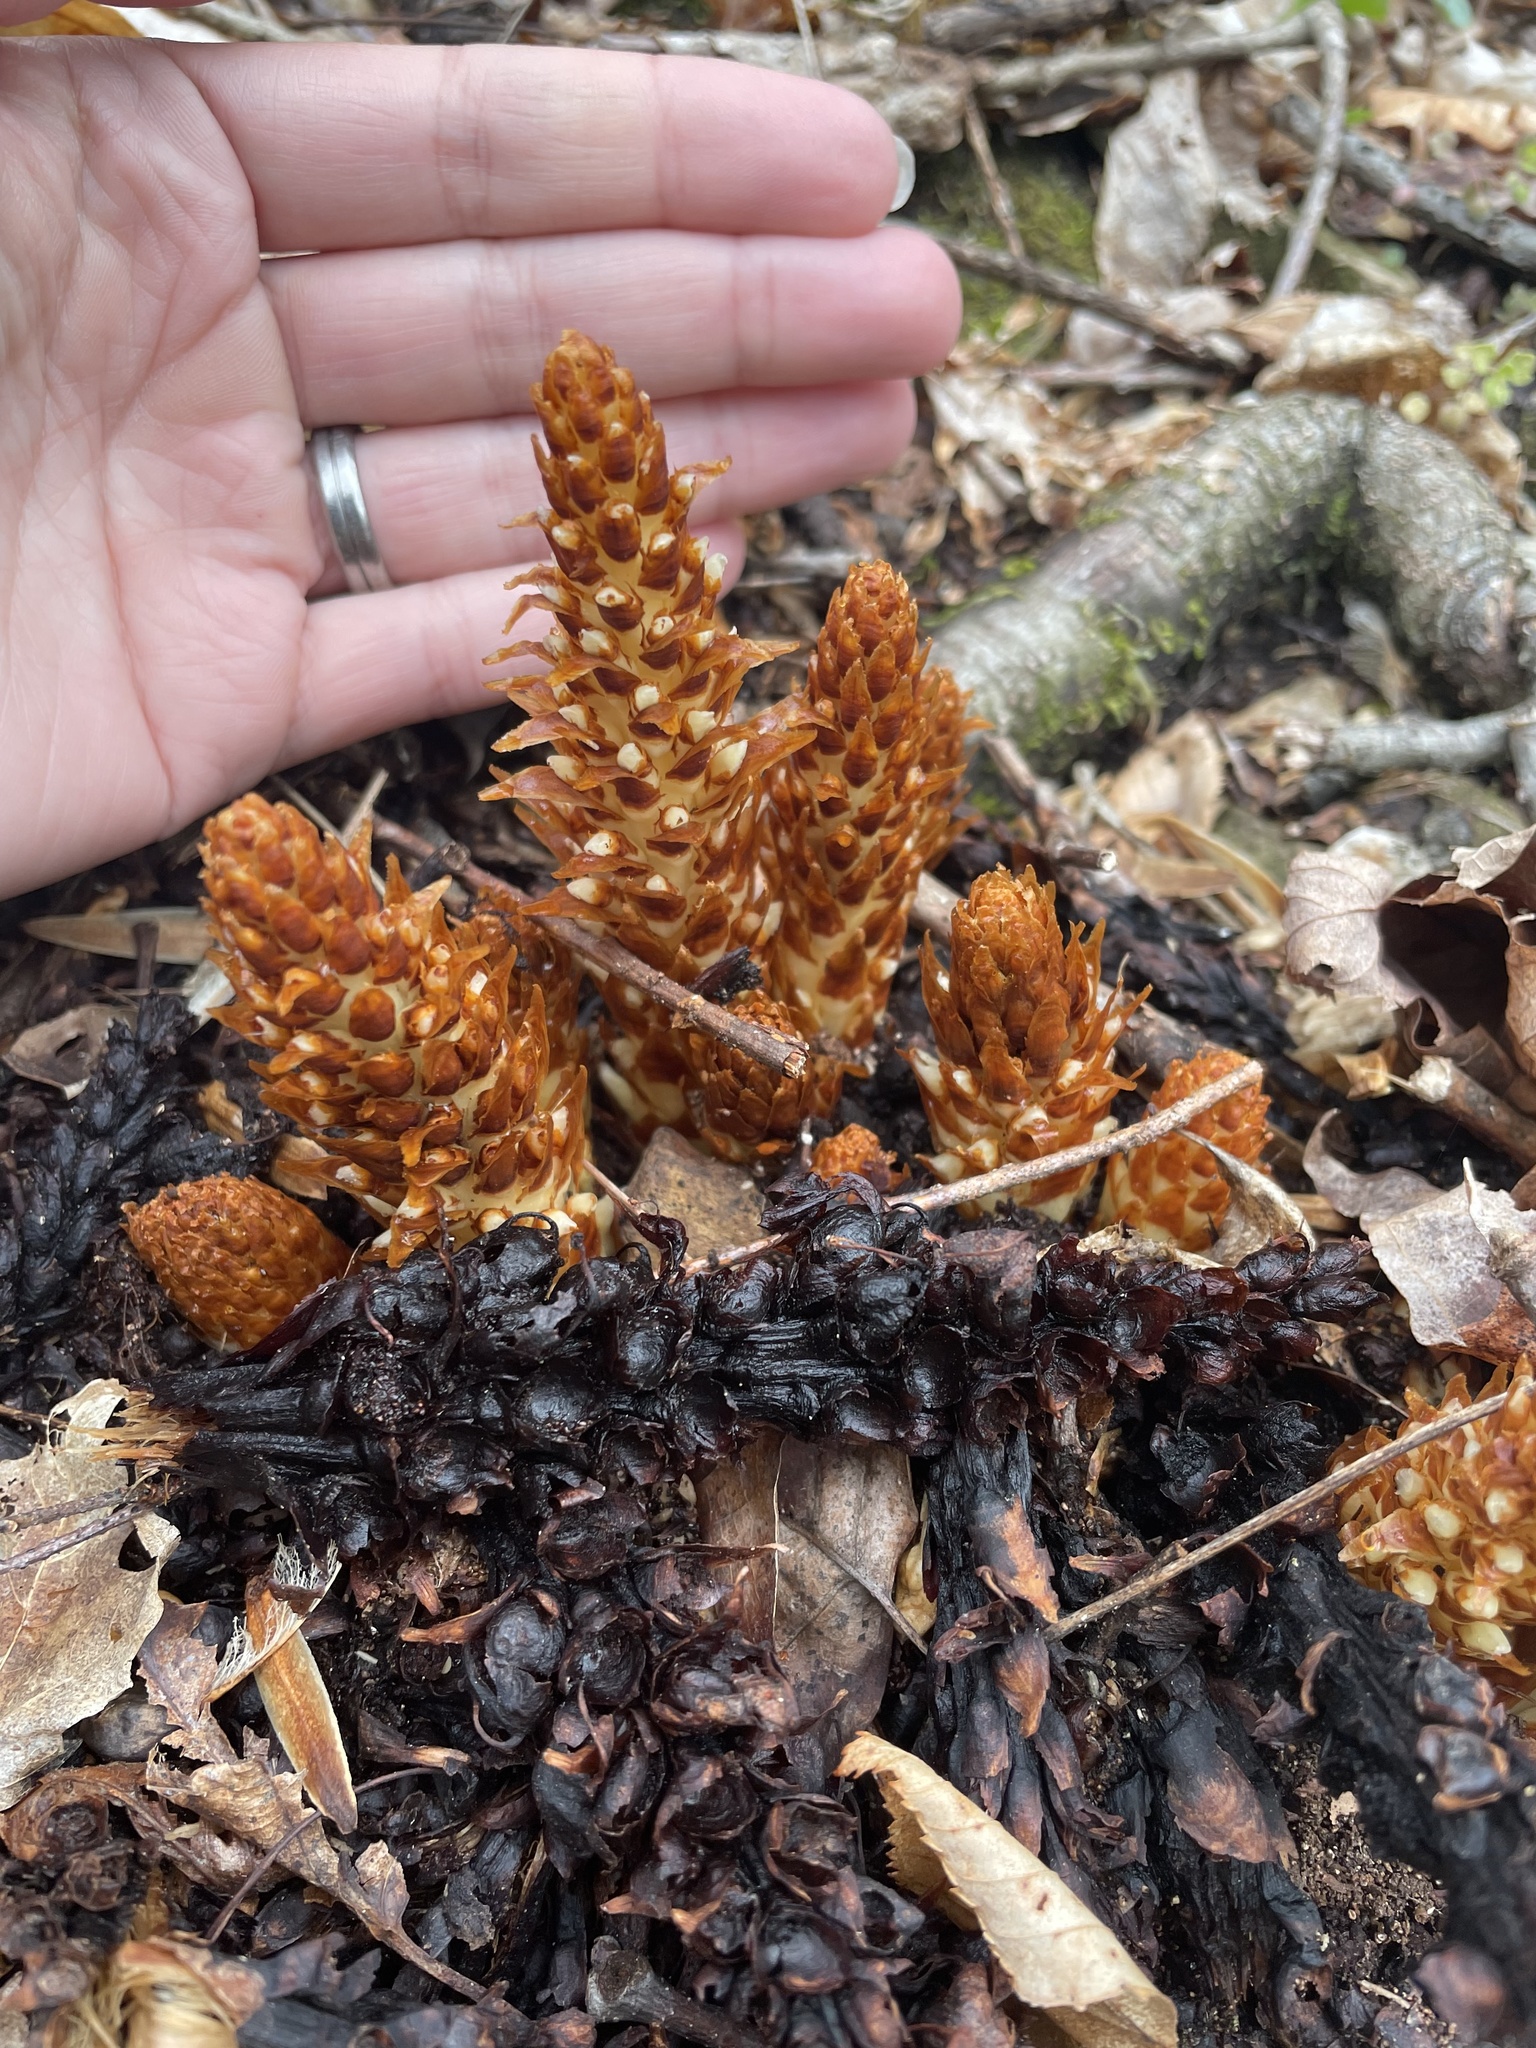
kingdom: Plantae
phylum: Tracheophyta
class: Magnoliopsida
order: Lamiales
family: Orobanchaceae
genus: Conopholis
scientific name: Conopholis americana
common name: American cancer-root
